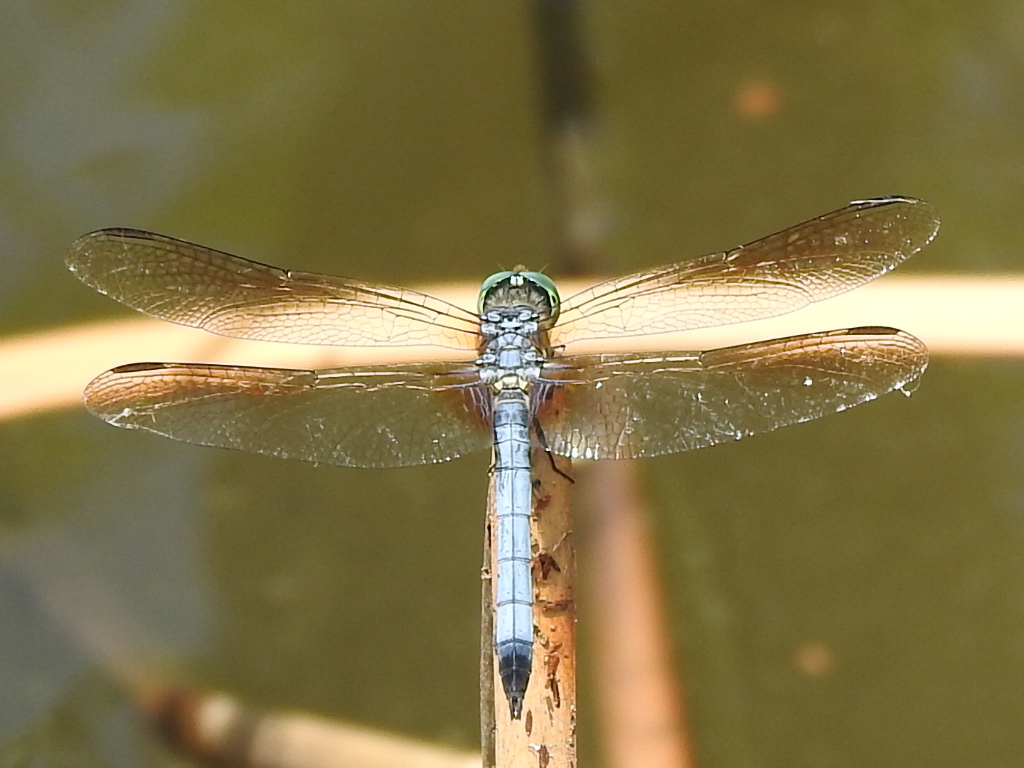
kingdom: Animalia
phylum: Arthropoda
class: Insecta
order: Odonata
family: Libellulidae
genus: Pachydiplax
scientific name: Pachydiplax longipennis
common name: Blue dasher
